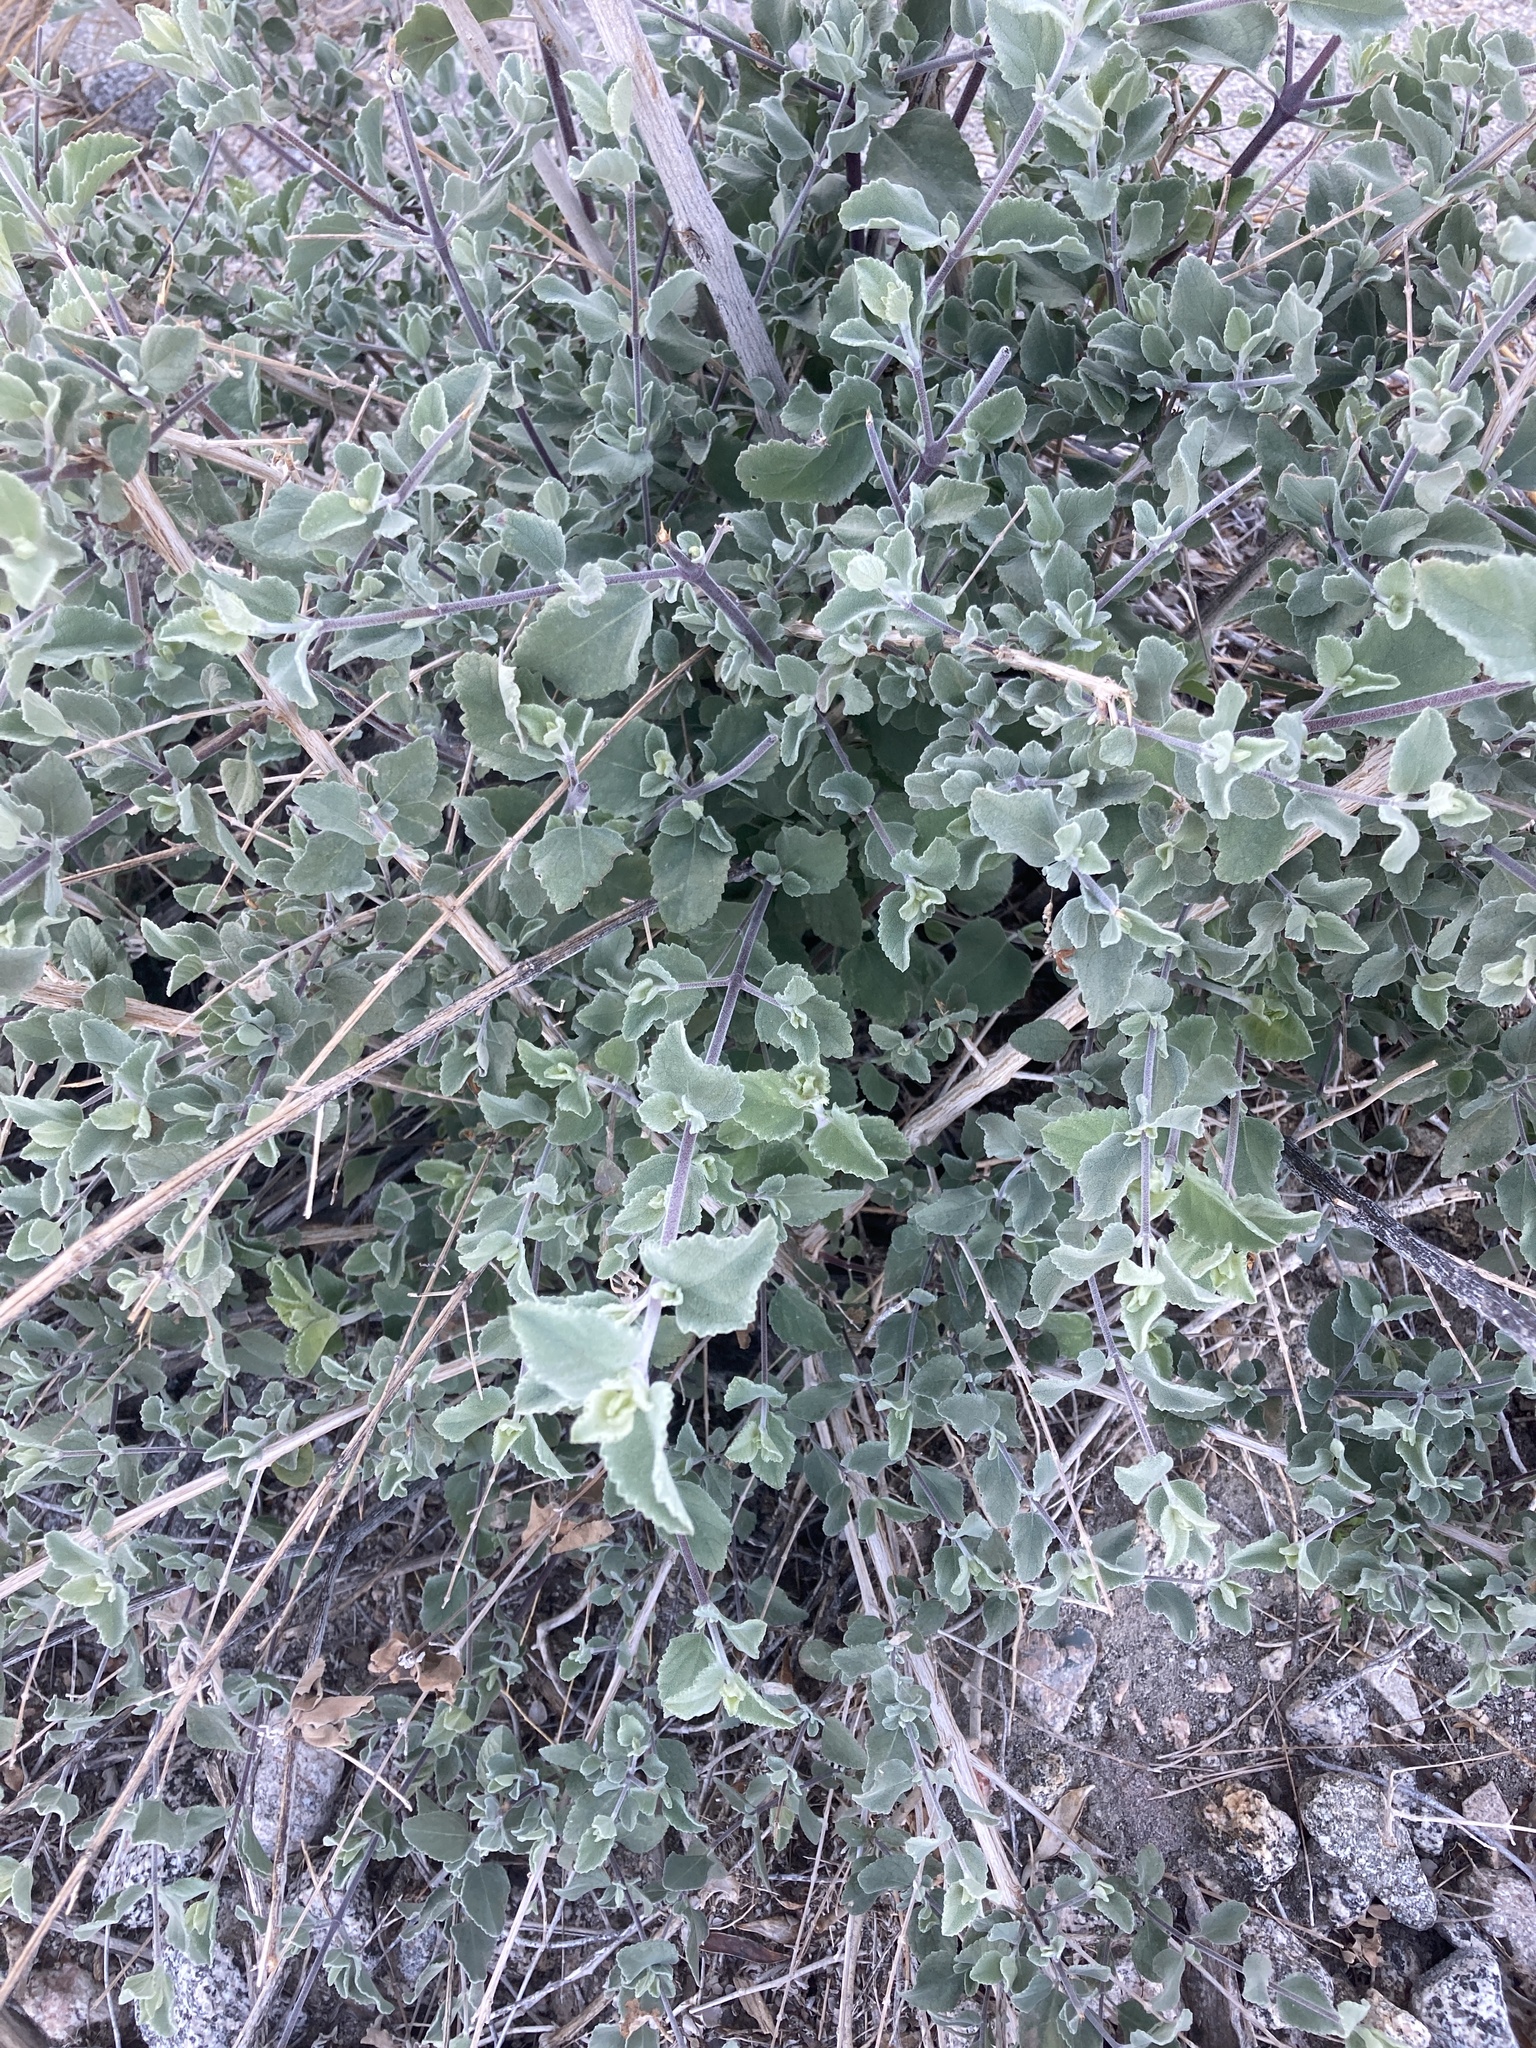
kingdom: Plantae
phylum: Tracheophyta
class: Magnoliopsida
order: Lamiales
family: Lamiaceae
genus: Condea
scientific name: Condea emoryi
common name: Chia
